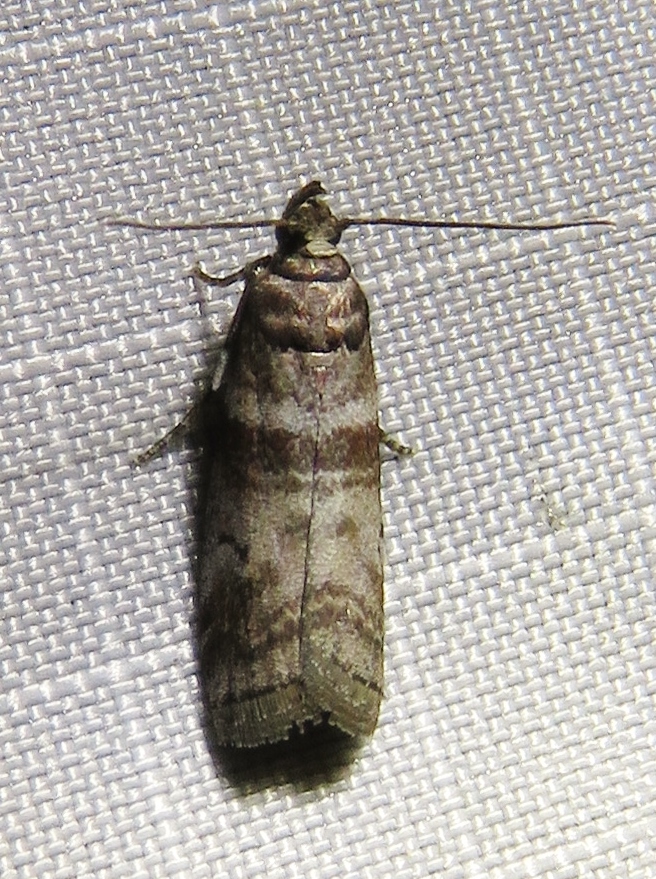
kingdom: Animalia
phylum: Arthropoda
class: Insecta
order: Lepidoptera
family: Pyralidae
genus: Sciota
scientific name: Sciota uvinella
